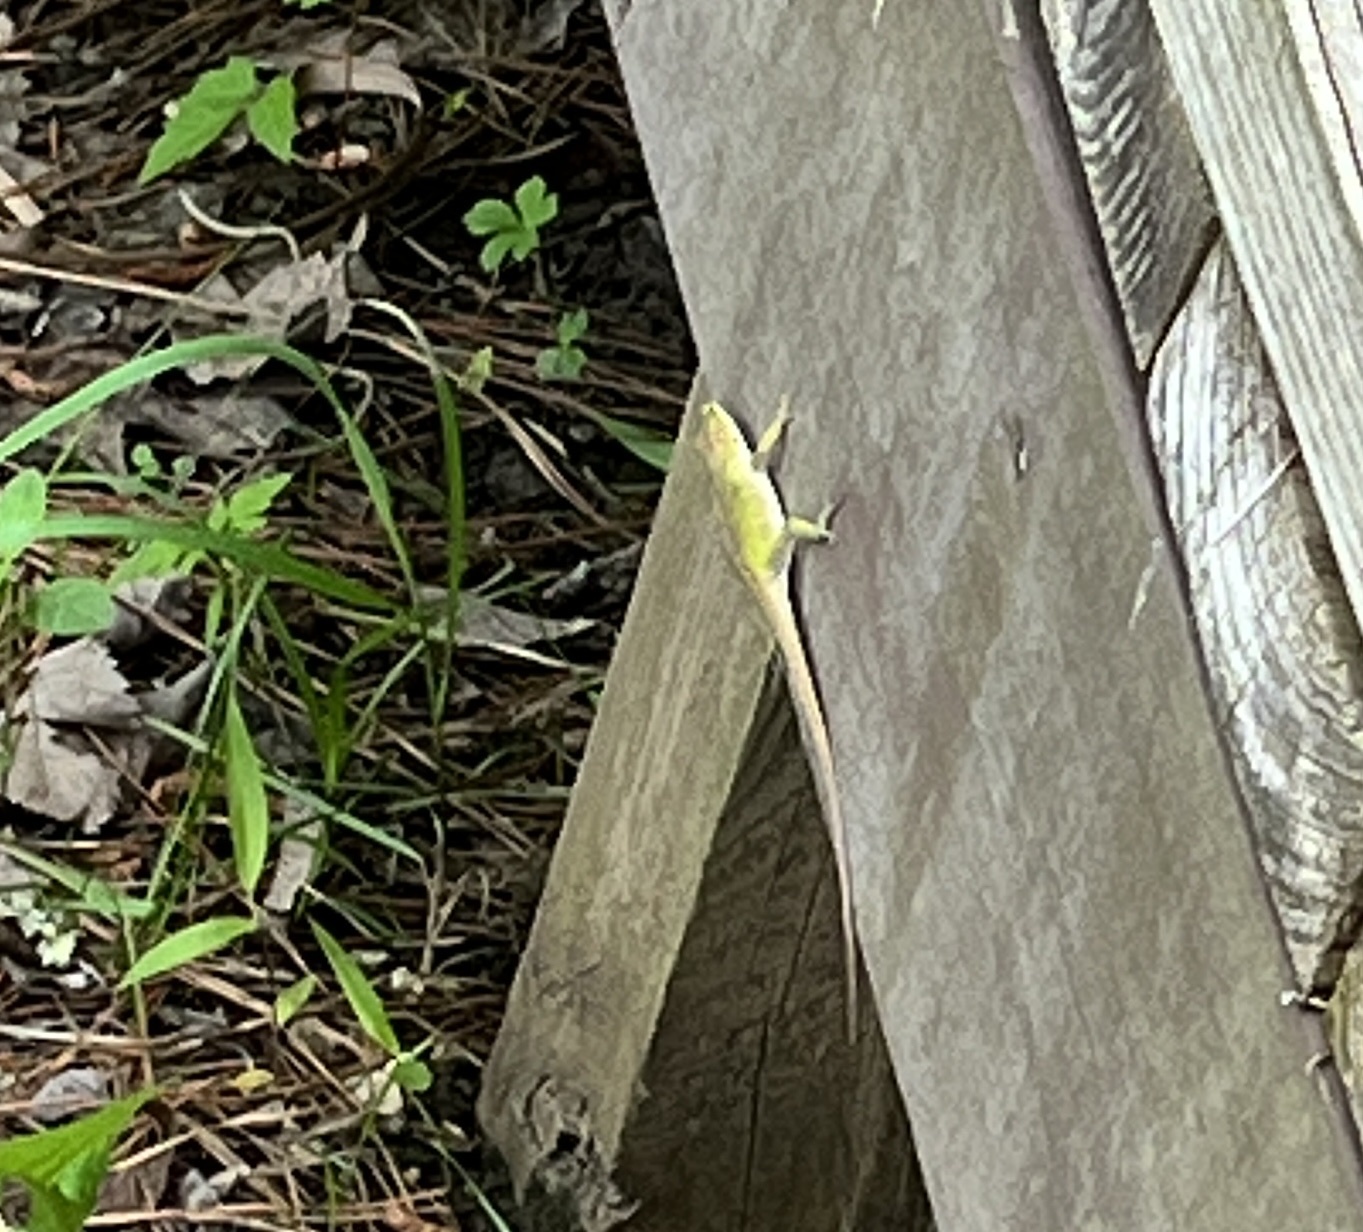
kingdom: Animalia
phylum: Chordata
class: Squamata
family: Dactyloidae
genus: Anolis
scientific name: Anolis carolinensis
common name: Green anole
